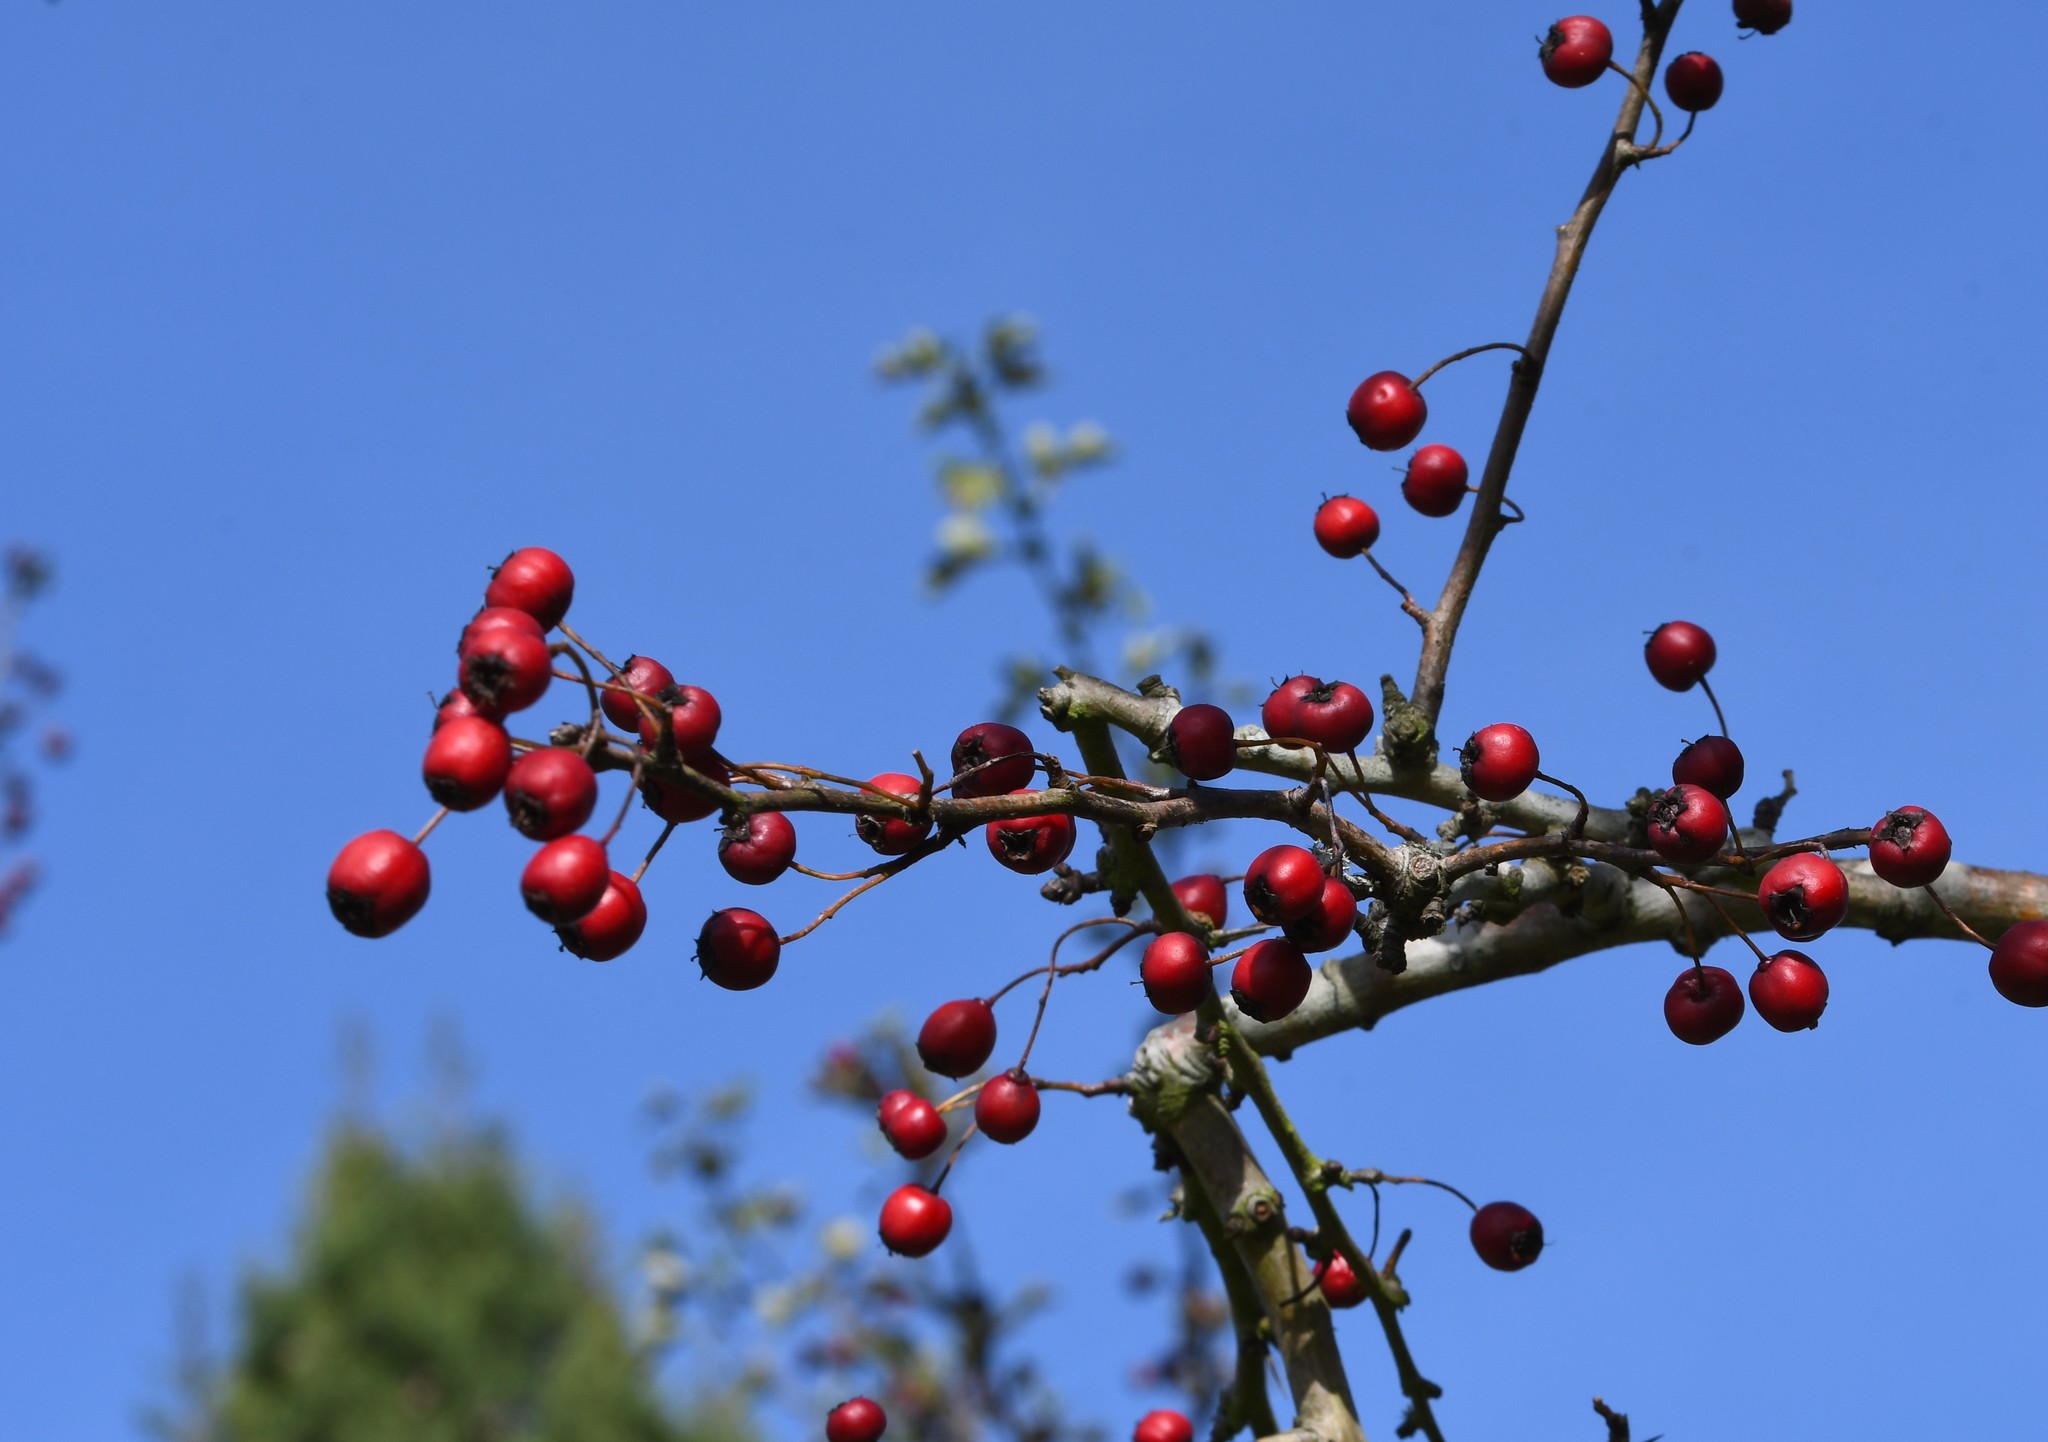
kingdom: Plantae
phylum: Tracheophyta
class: Magnoliopsida
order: Rosales
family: Rosaceae
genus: Crataegus
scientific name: Crataegus monogyna
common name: Hawthorn
